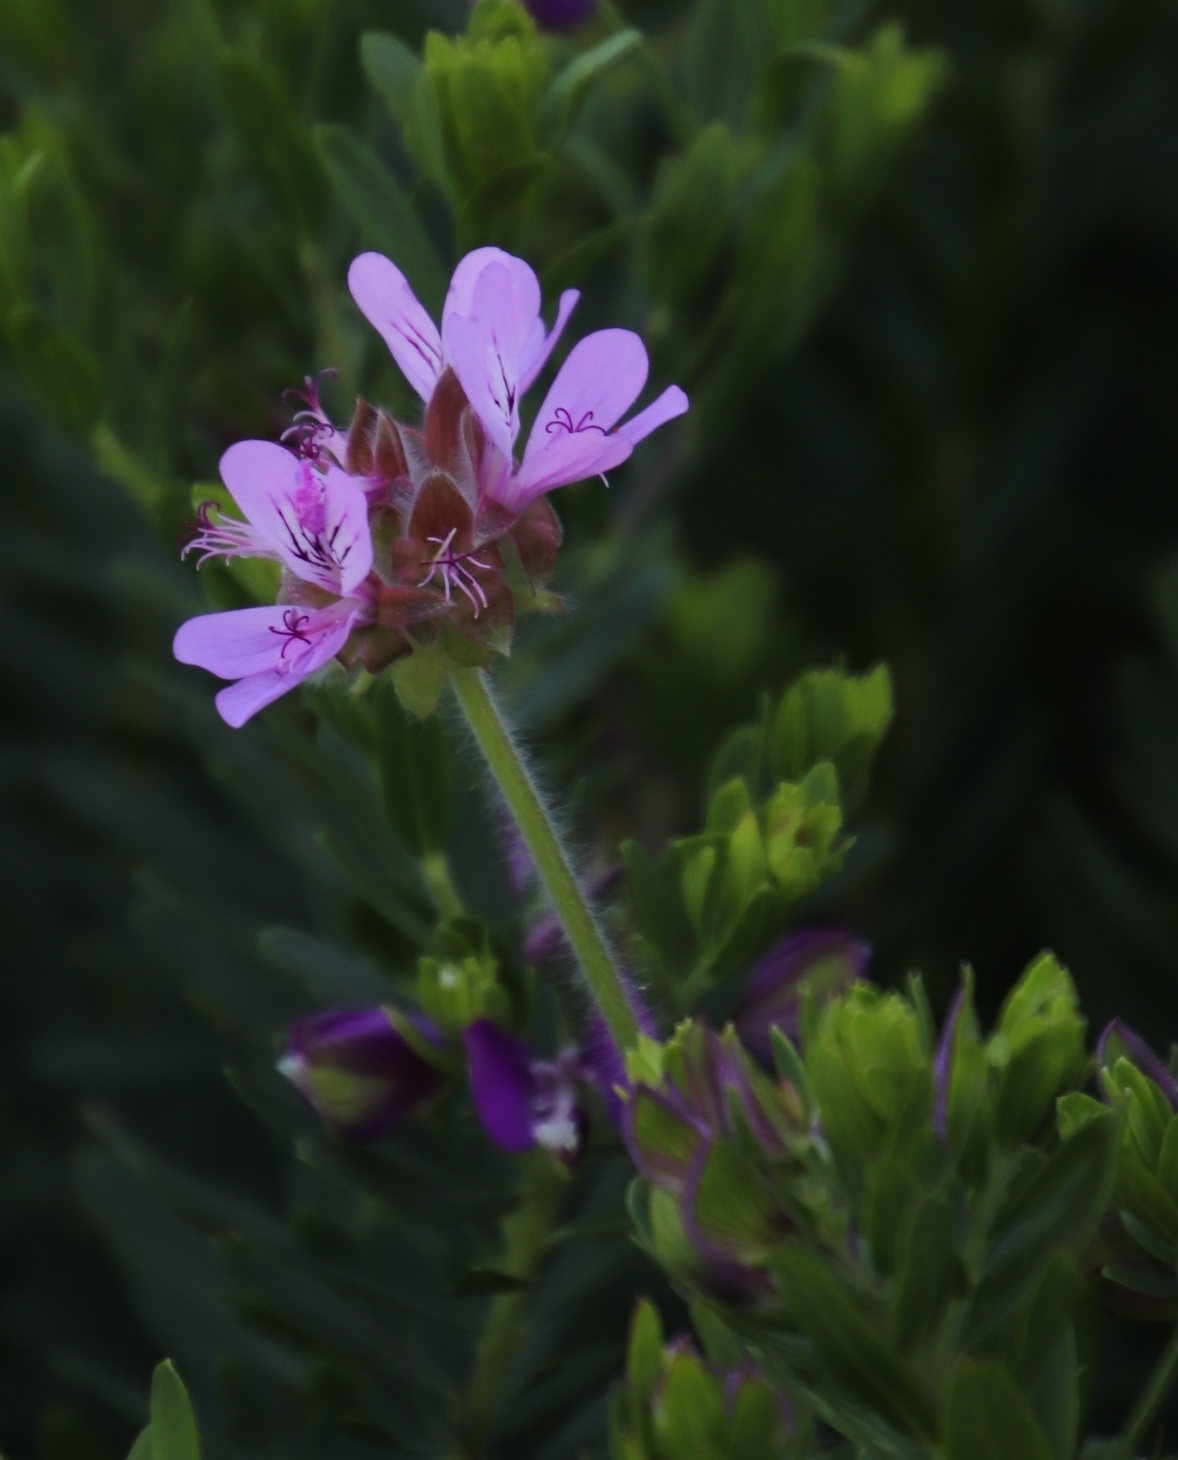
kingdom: Plantae
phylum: Tracheophyta
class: Magnoliopsida
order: Geraniales
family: Geraniaceae
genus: Pelargonium
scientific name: Pelargonium capitatum
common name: Rose scented geranium
